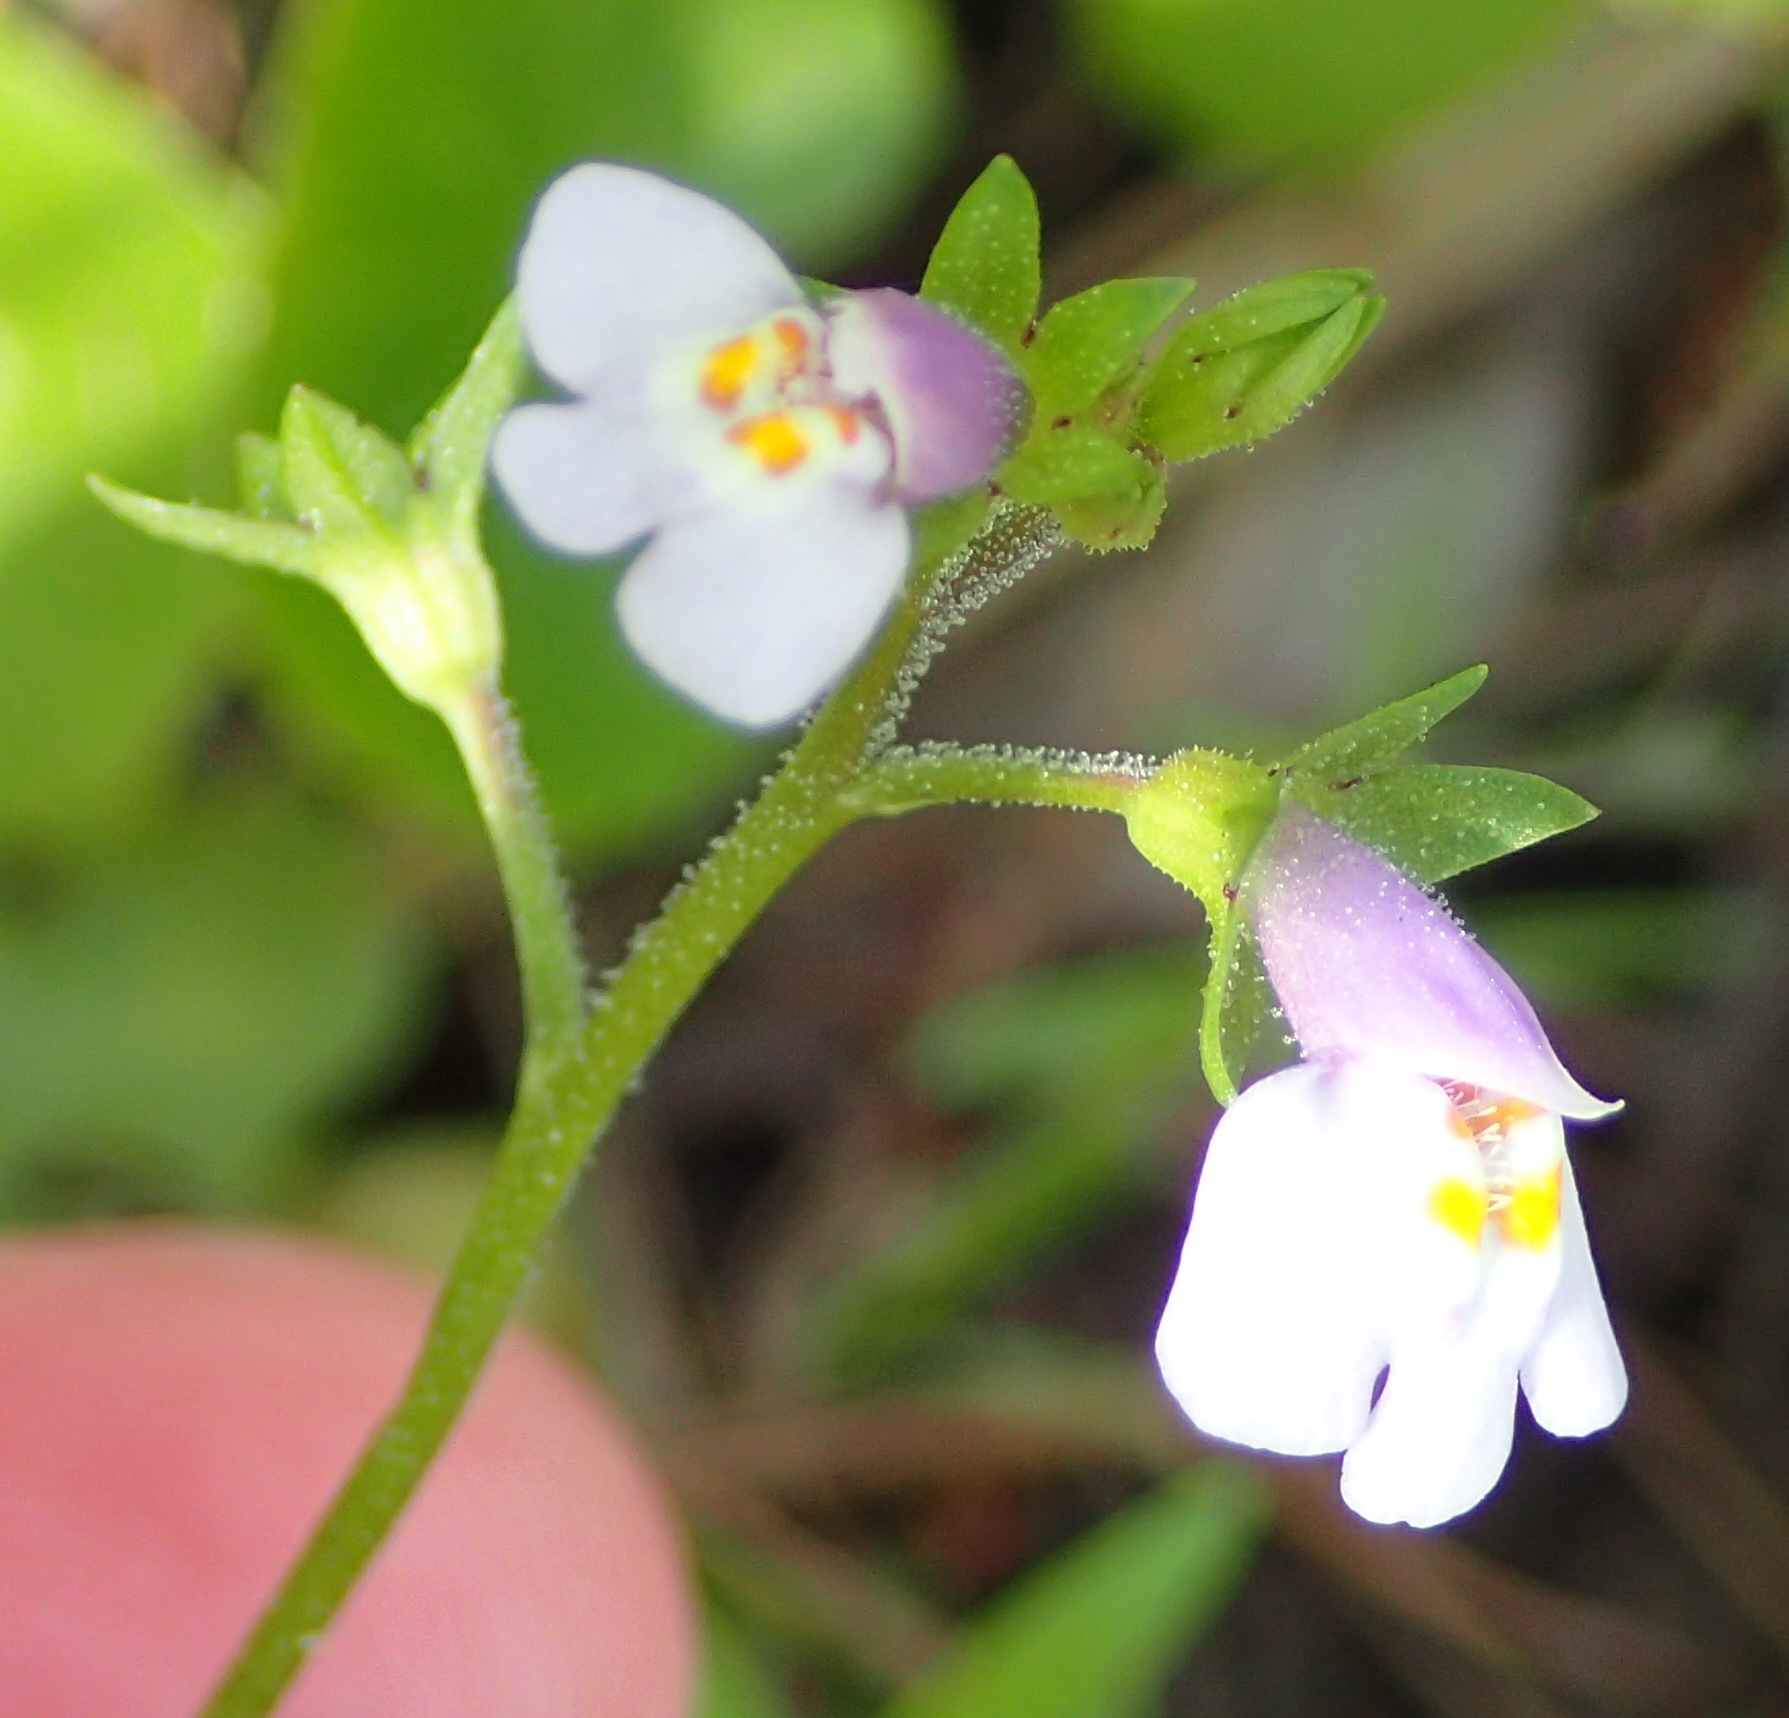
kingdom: Plantae
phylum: Tracheophyta
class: Magnoliopsida
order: Lamiales
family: Mazaceae
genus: Mazus
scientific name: Mazus pumilus
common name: Japanese mazus
